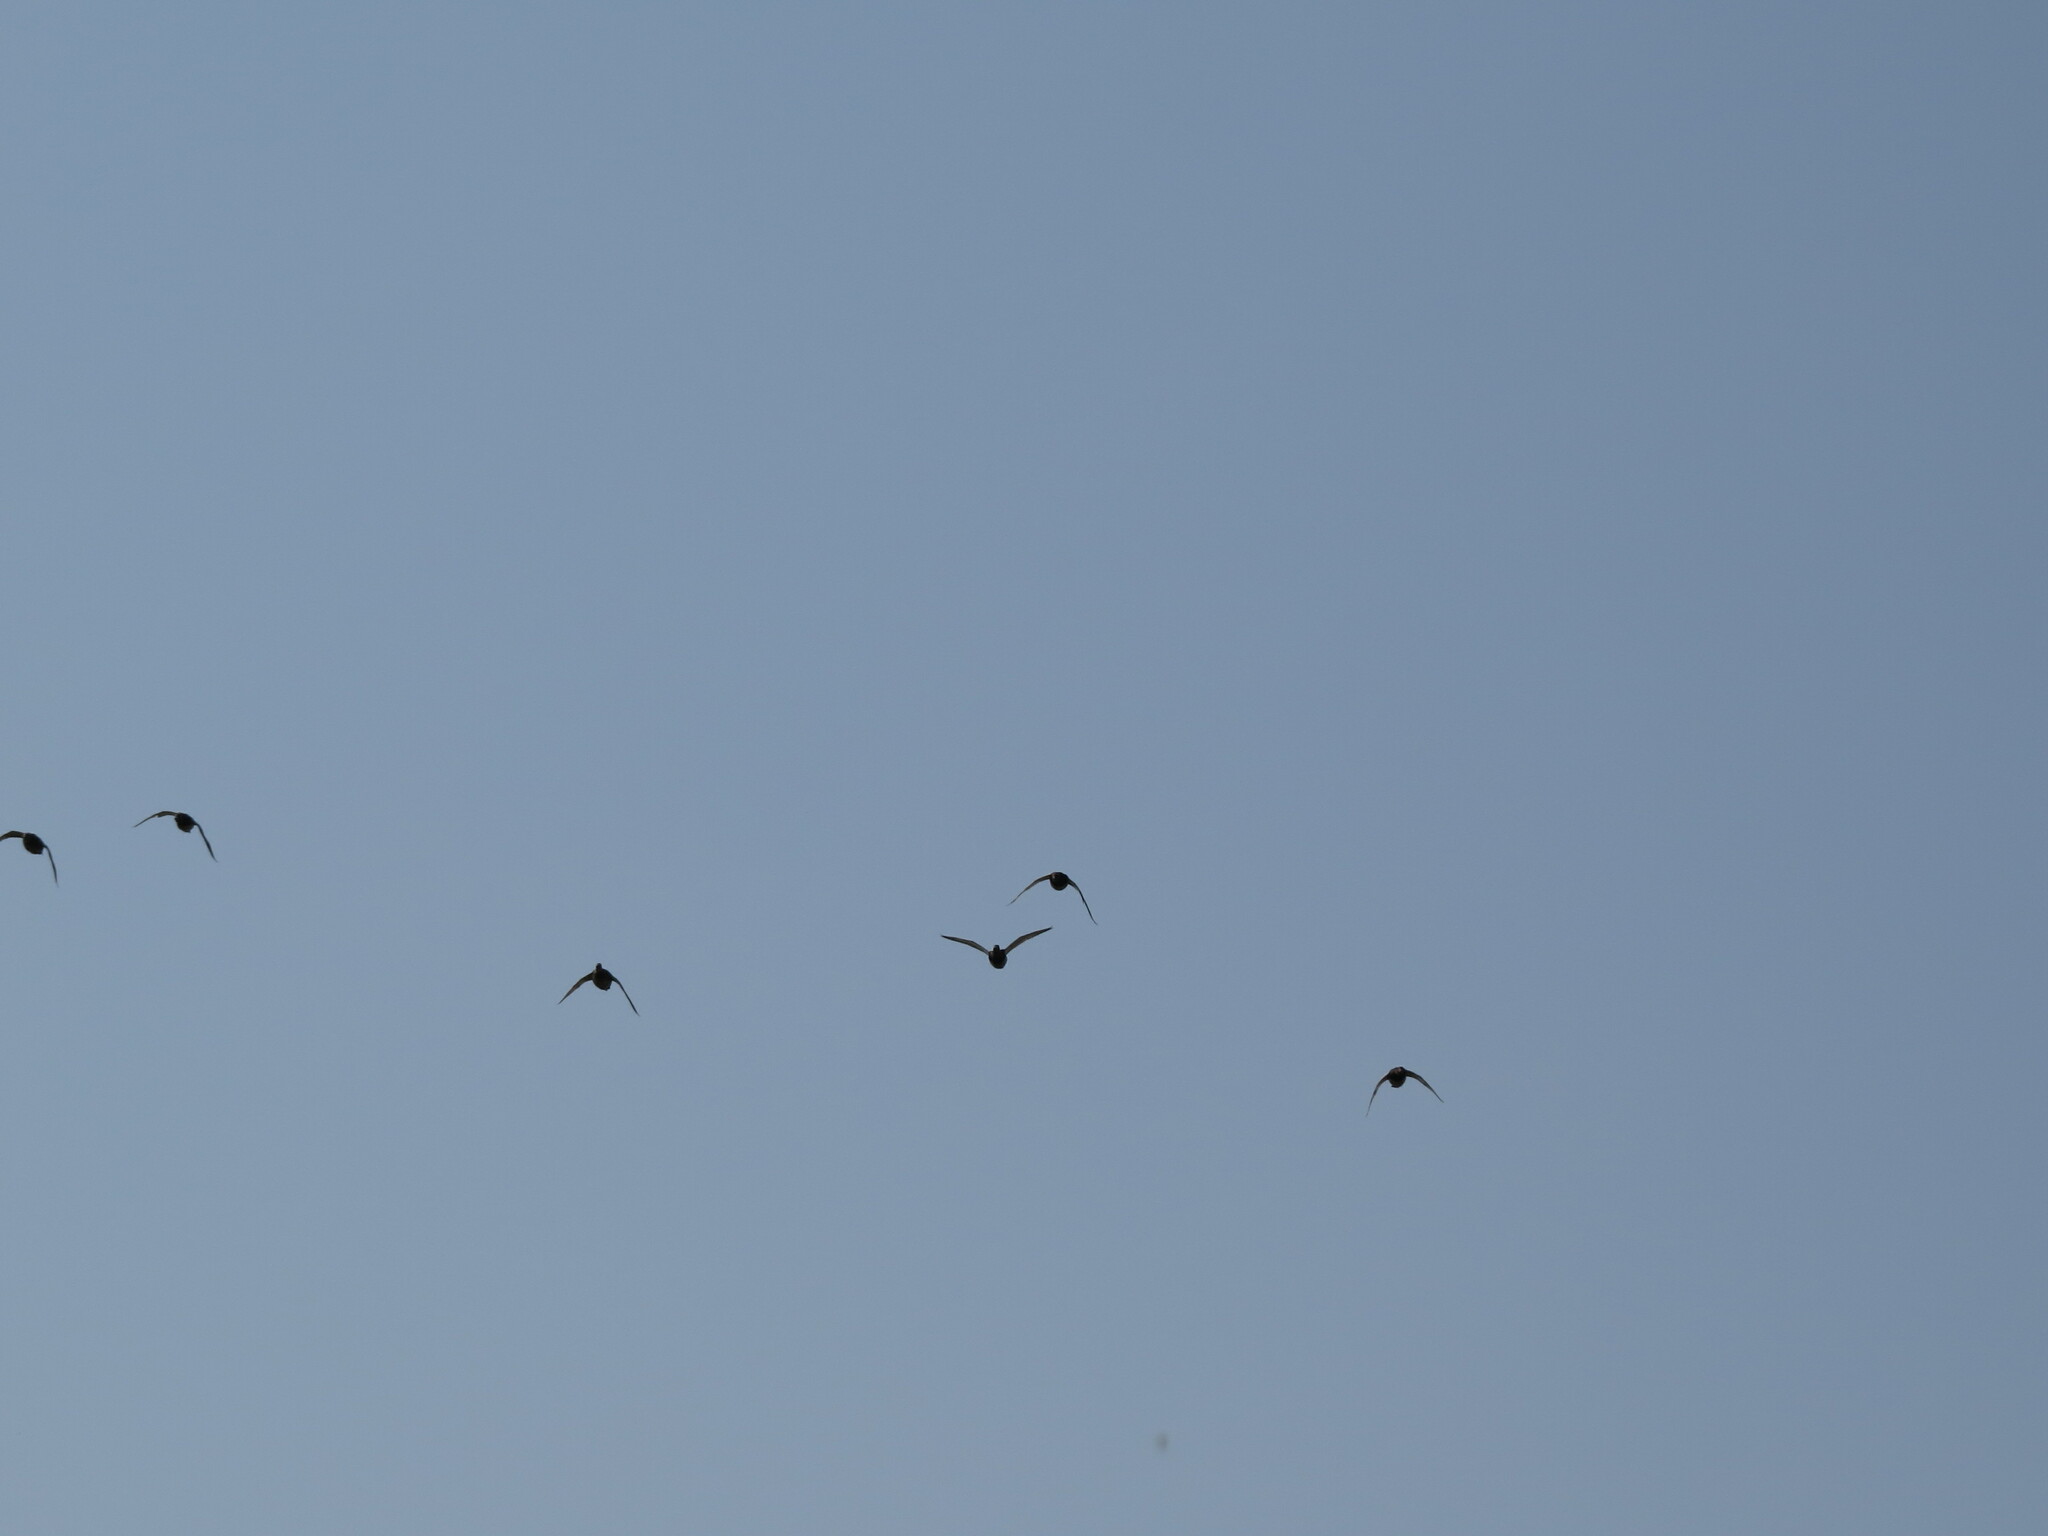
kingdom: Animalia
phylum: Chordata
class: Aves
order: Anseriformes
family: Anatidae
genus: Aythya
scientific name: Aythya fuligula
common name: Tufted duck
